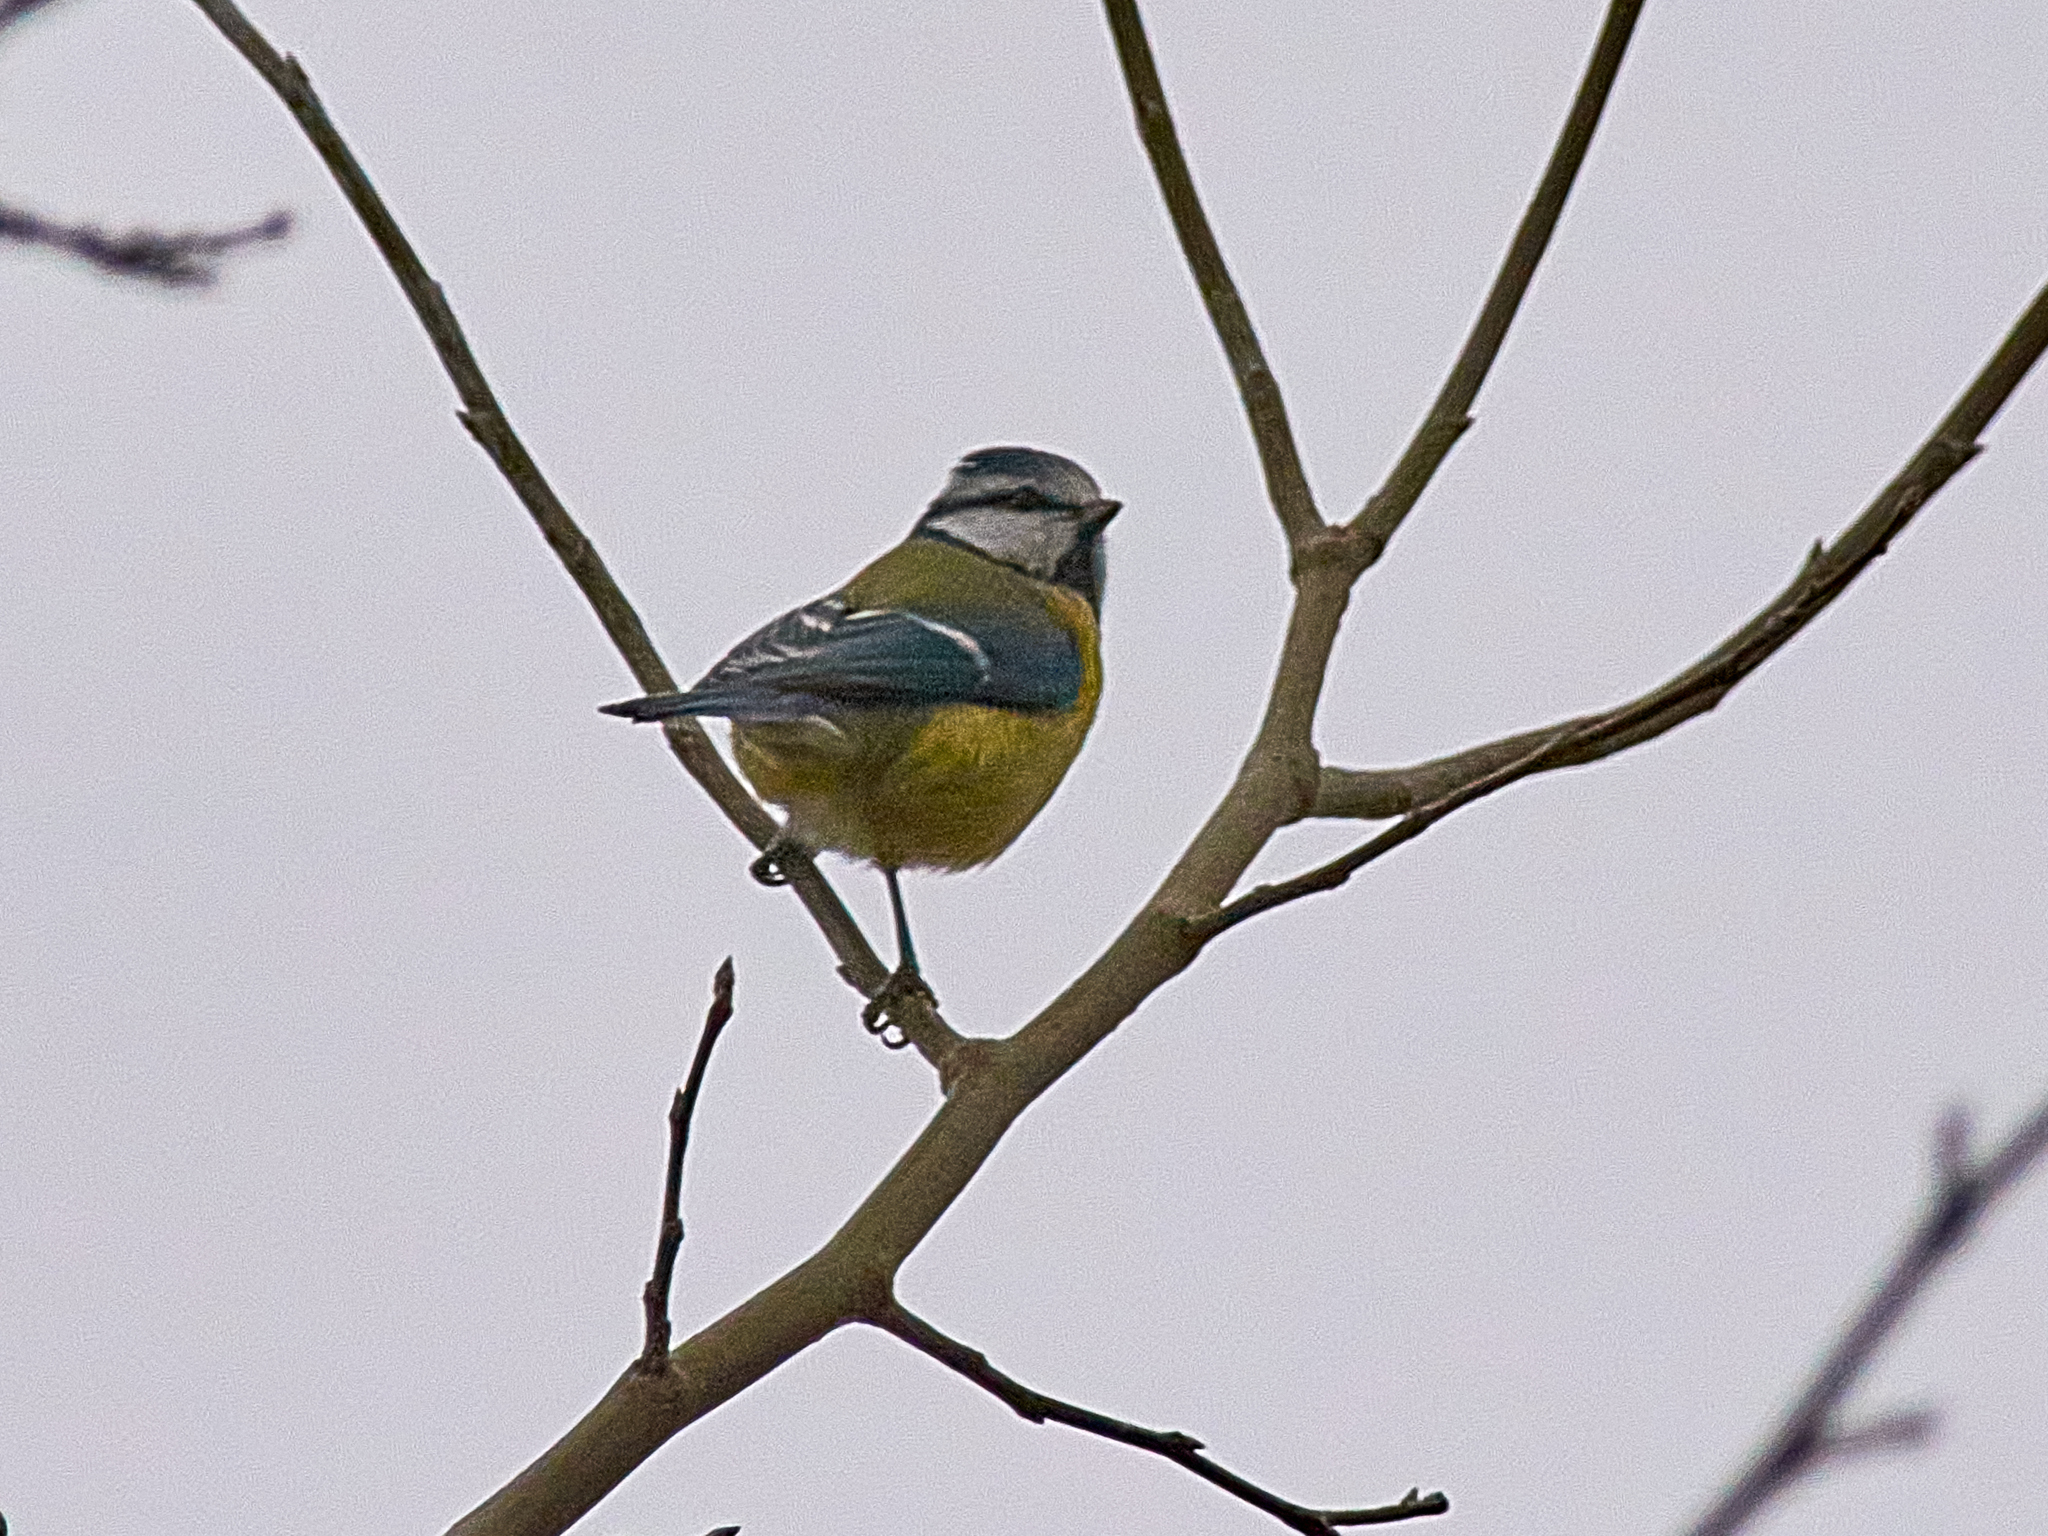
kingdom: Animalia
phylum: Chordata
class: Aves
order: Passeriformes
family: Paridae
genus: Cyanistes
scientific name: Cyanistes caeruleus
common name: Eurasian blue tit
